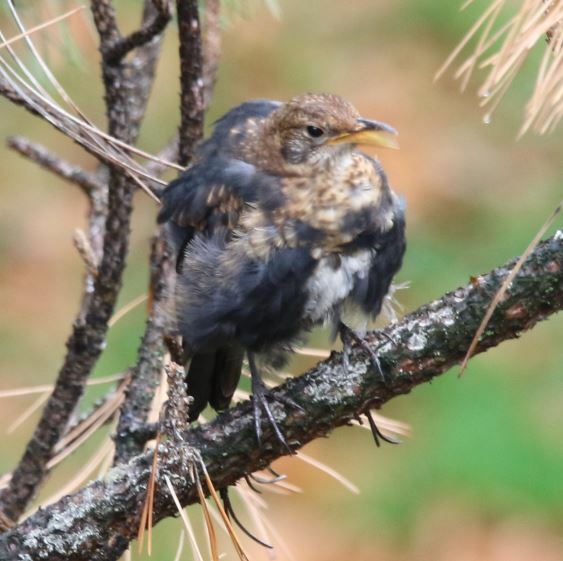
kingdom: Animalia
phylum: Chordata
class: Aves
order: Passeriformes
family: Turdidae
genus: Turdus
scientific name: Turdus merula
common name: Common blackbird
